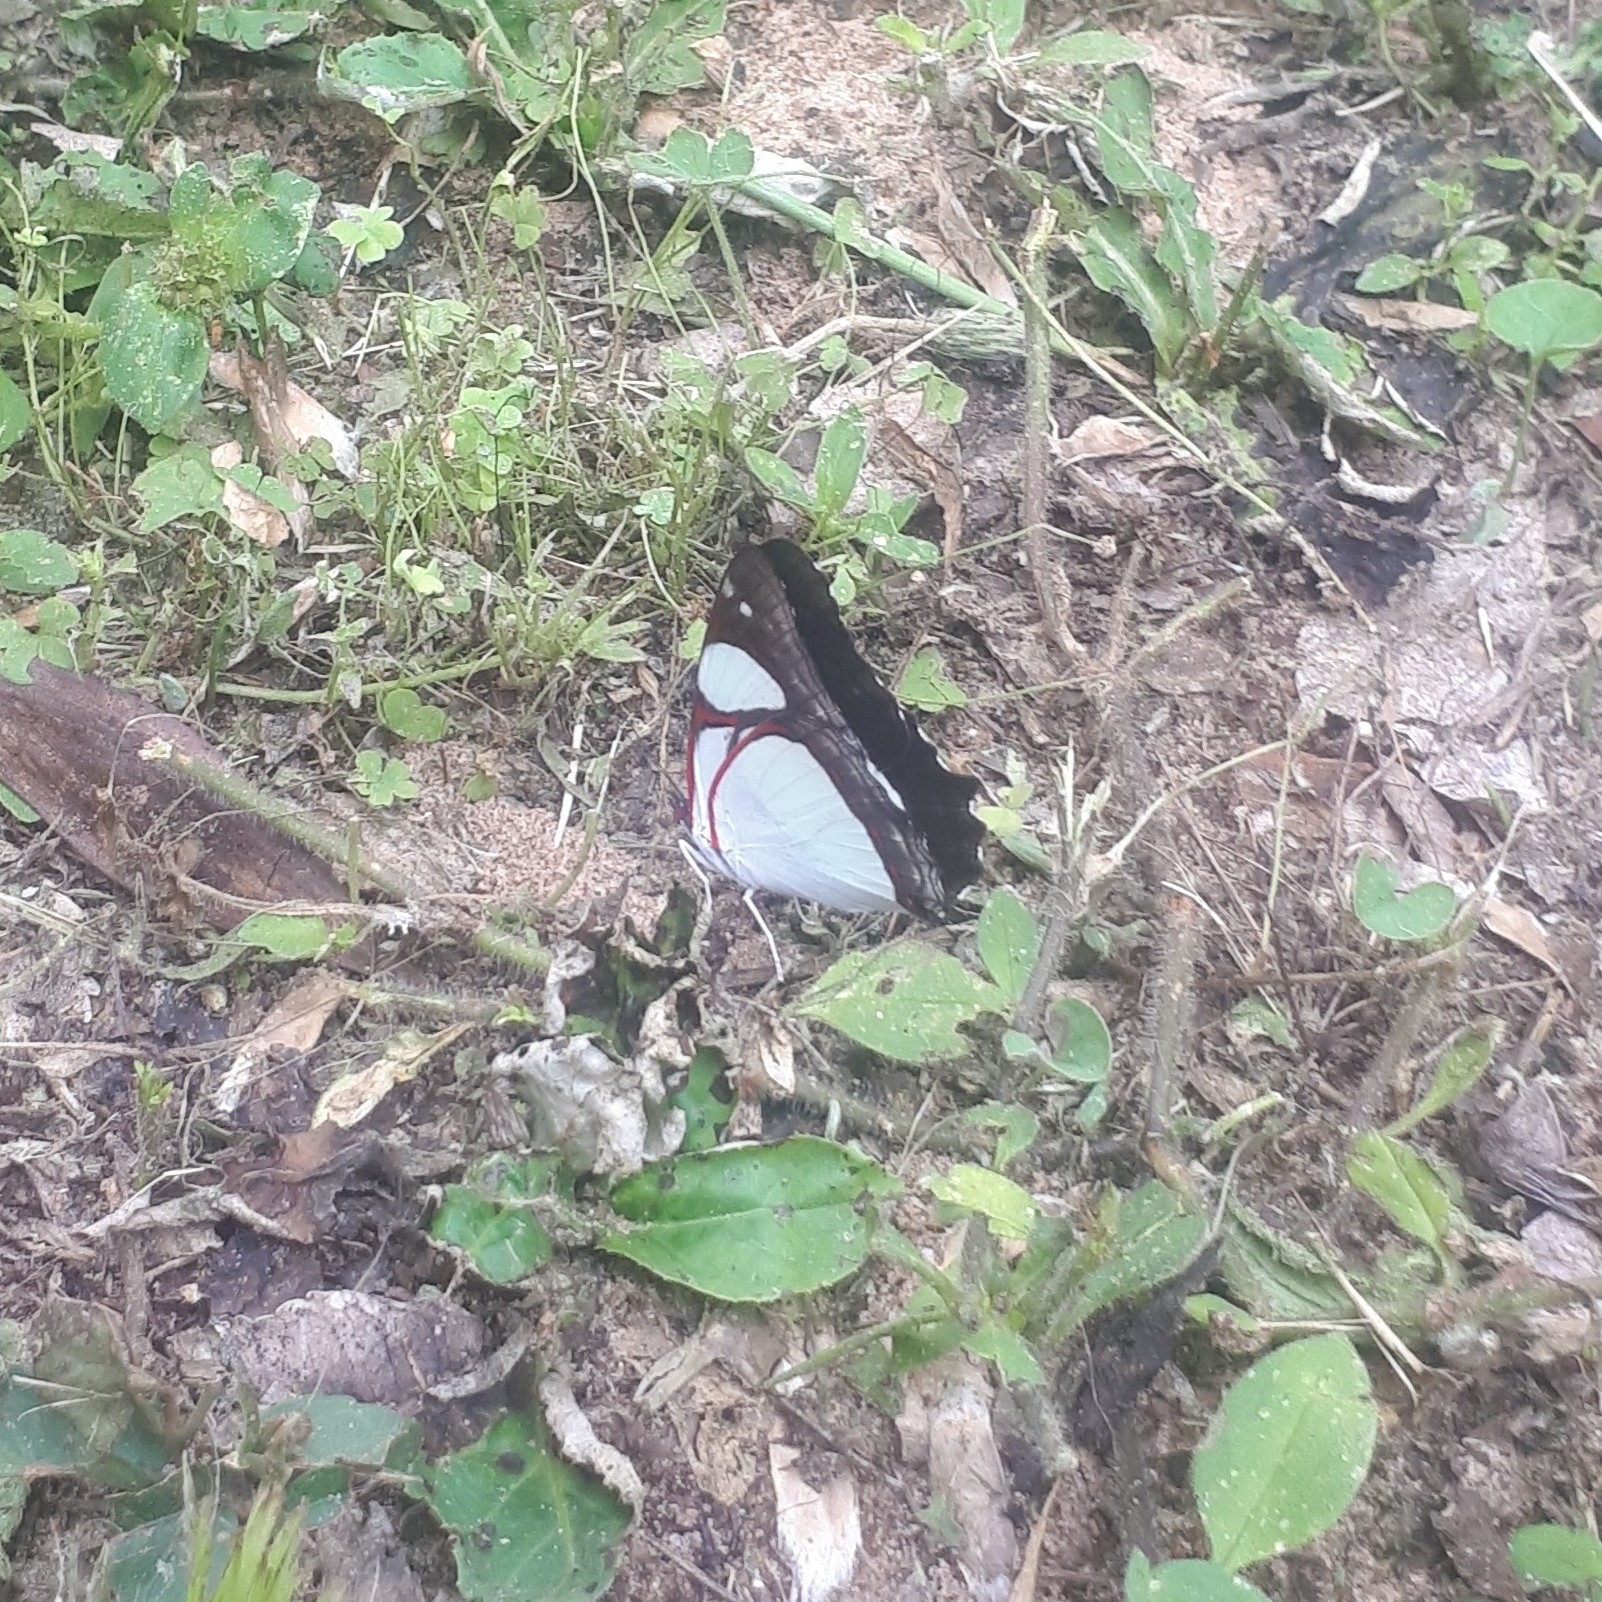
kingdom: Animalia
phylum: Arthropoda
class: Insecta
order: Lepidoptera
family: Nymphalidae
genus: Pyrrhogyra
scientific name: Pyrrhogyra neaerea
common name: Leading red-ring
